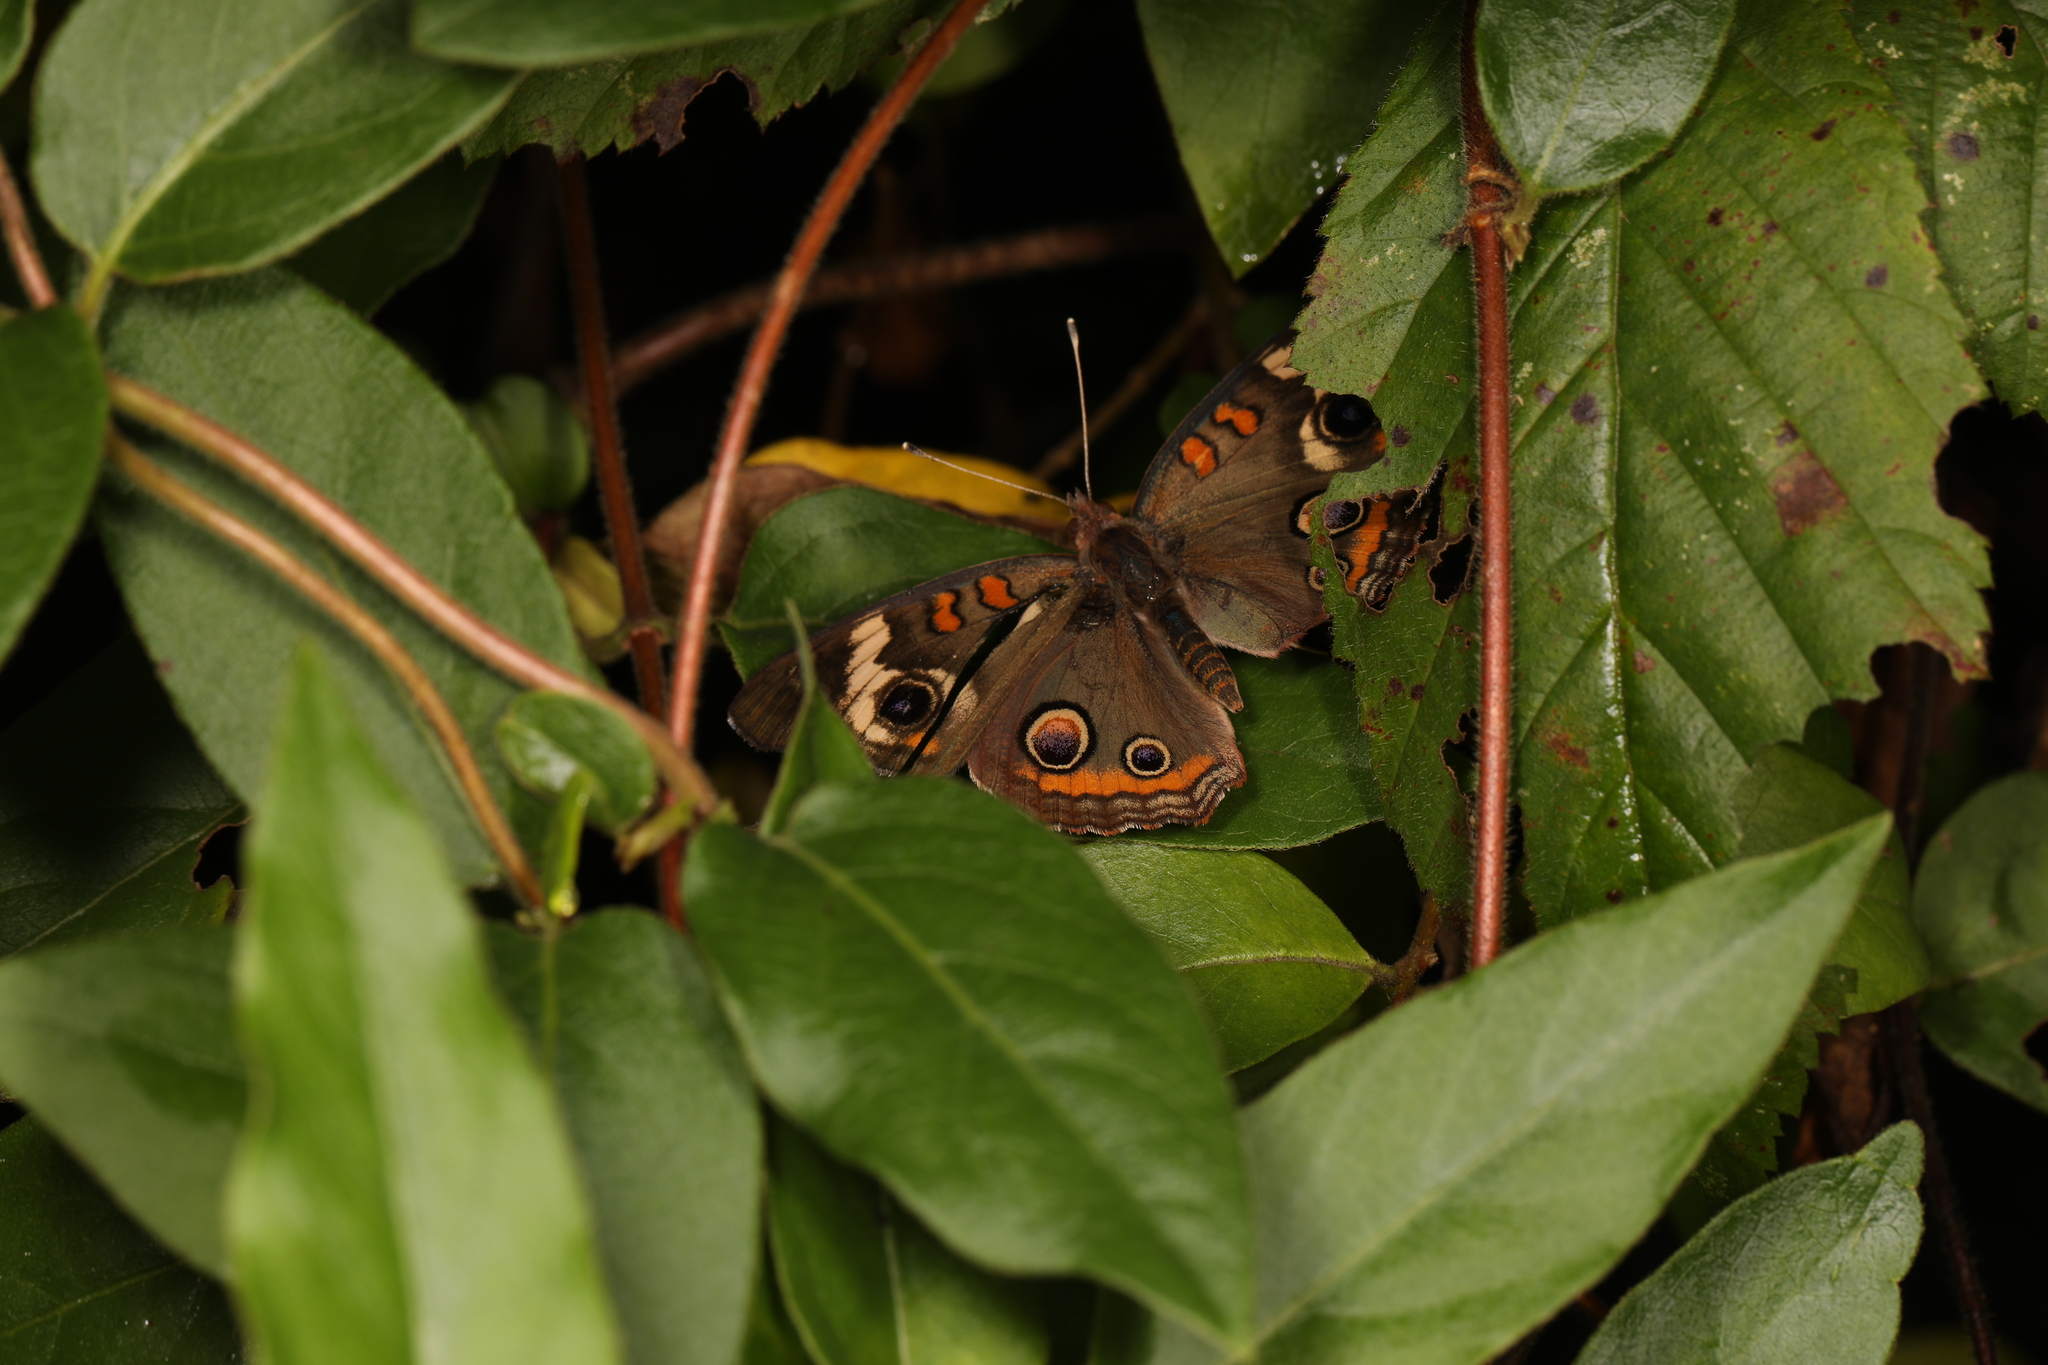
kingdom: Animalia
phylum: Arthropoda
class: Insecta
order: Lepidoptera
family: Nymphalidae
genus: Junonia
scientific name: Junonia coenia
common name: Common buckeye
